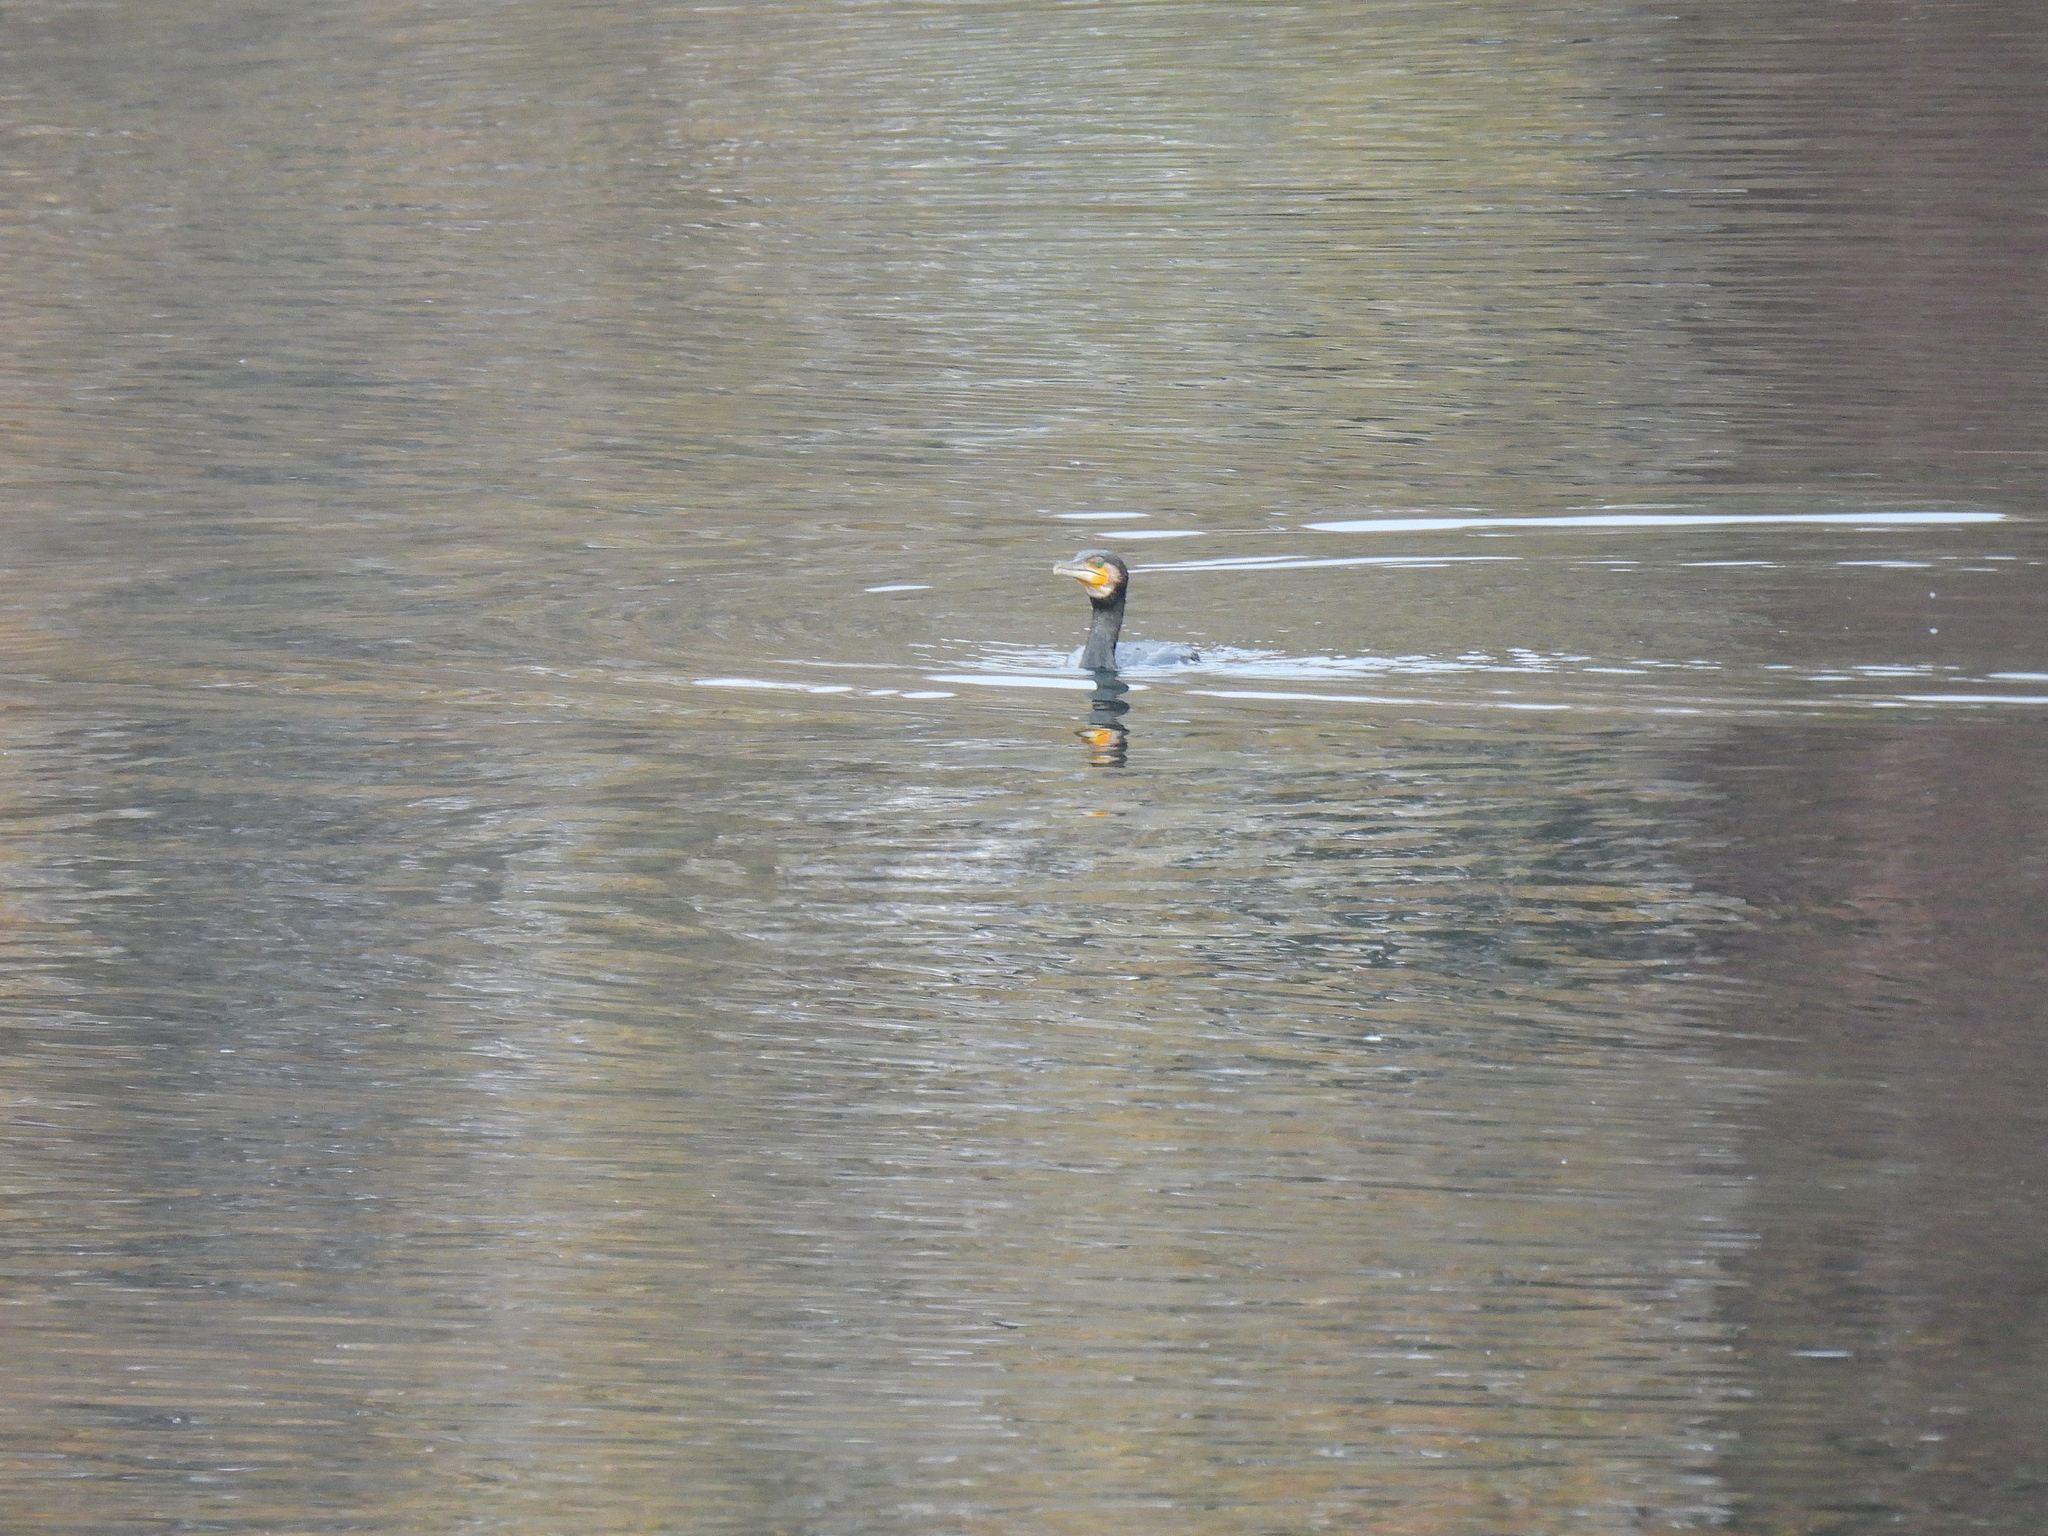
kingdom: Animalia
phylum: Chordata
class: Aves
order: Suliformes
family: Phalacrocoracidae
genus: Phalacrocorax
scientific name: Phalacrocorax carbo
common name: Great cormorant
